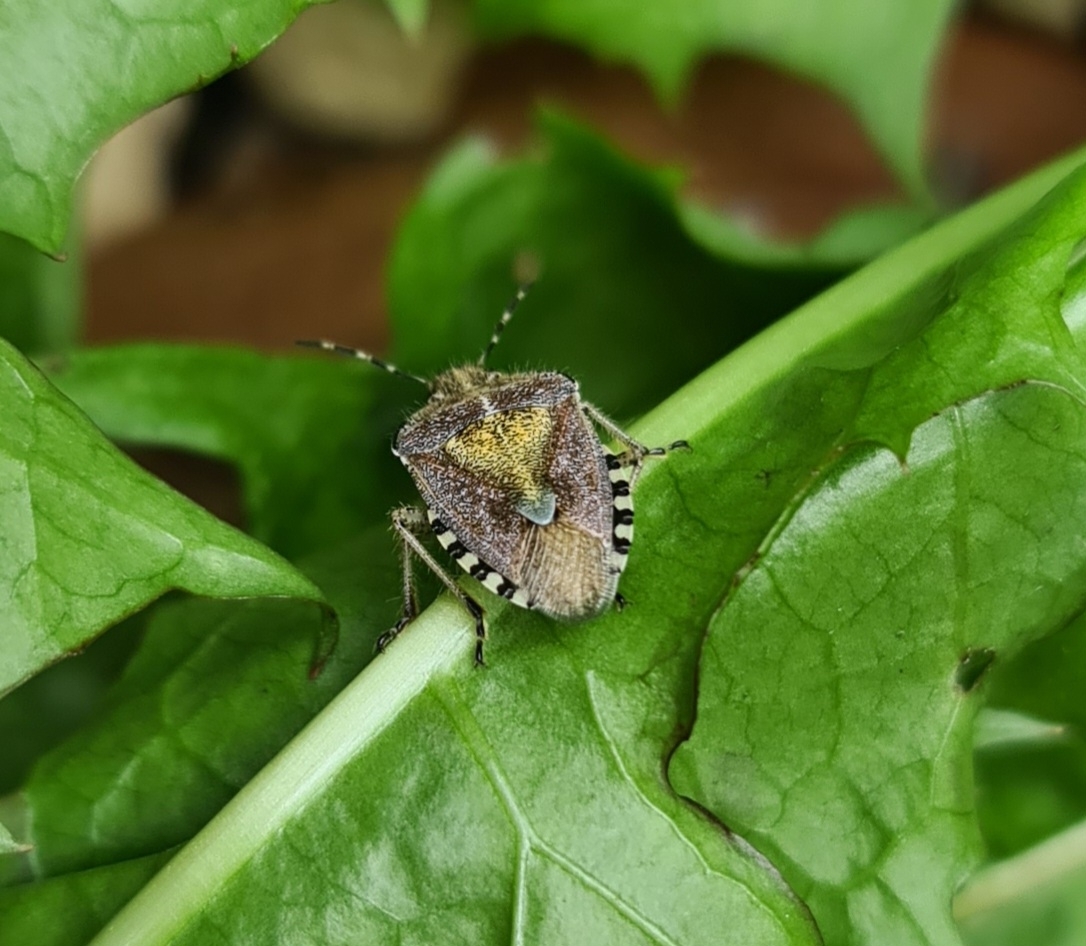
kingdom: Animalia
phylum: Arthropoda
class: Insecta
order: Hemiptera
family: Pentatomidae
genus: Dolycoris
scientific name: Dolycoris baccarum
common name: Sloe bug
